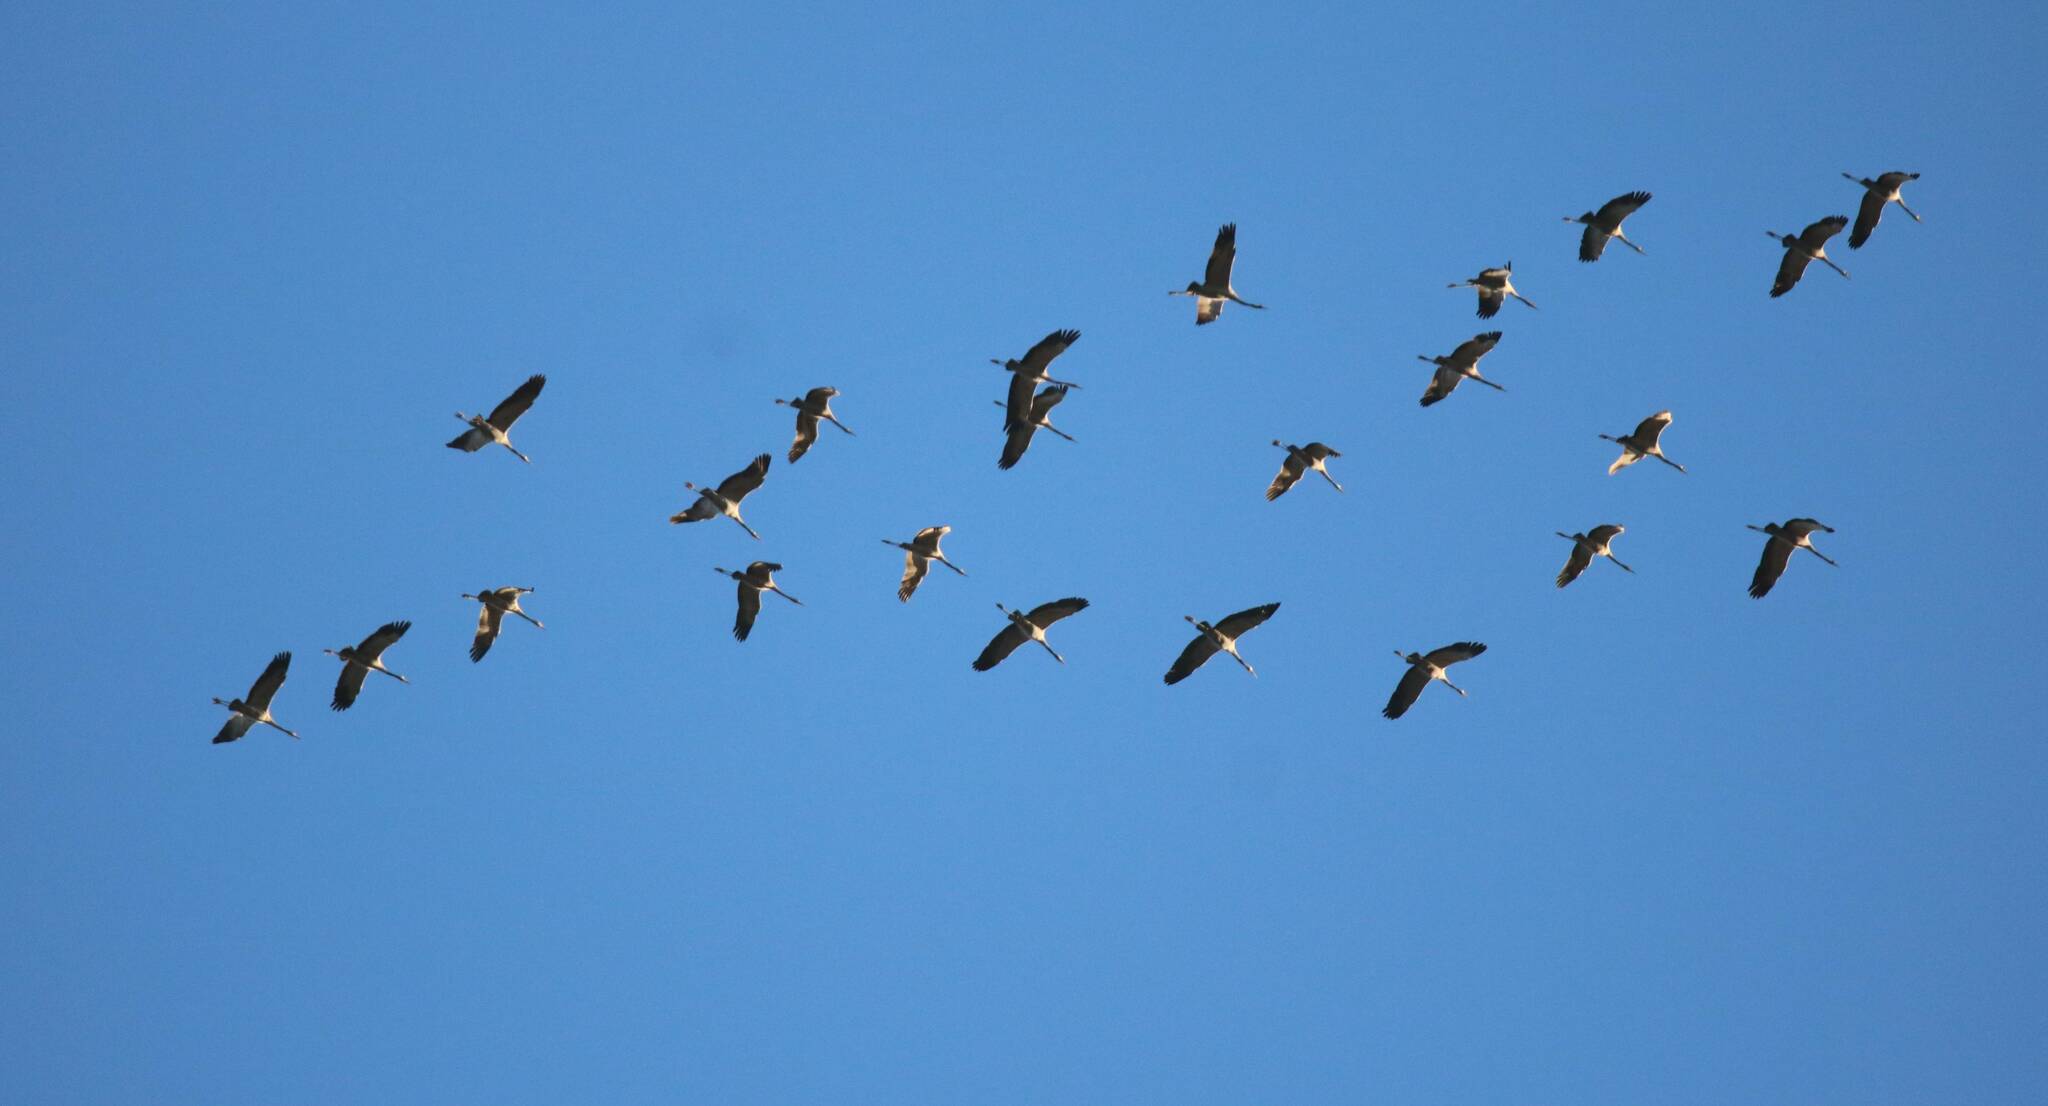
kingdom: Animalia
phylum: Chordata
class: Aves
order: Gruiformes
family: Gruidae
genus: Grus
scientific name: Grus grus
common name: Common crane
